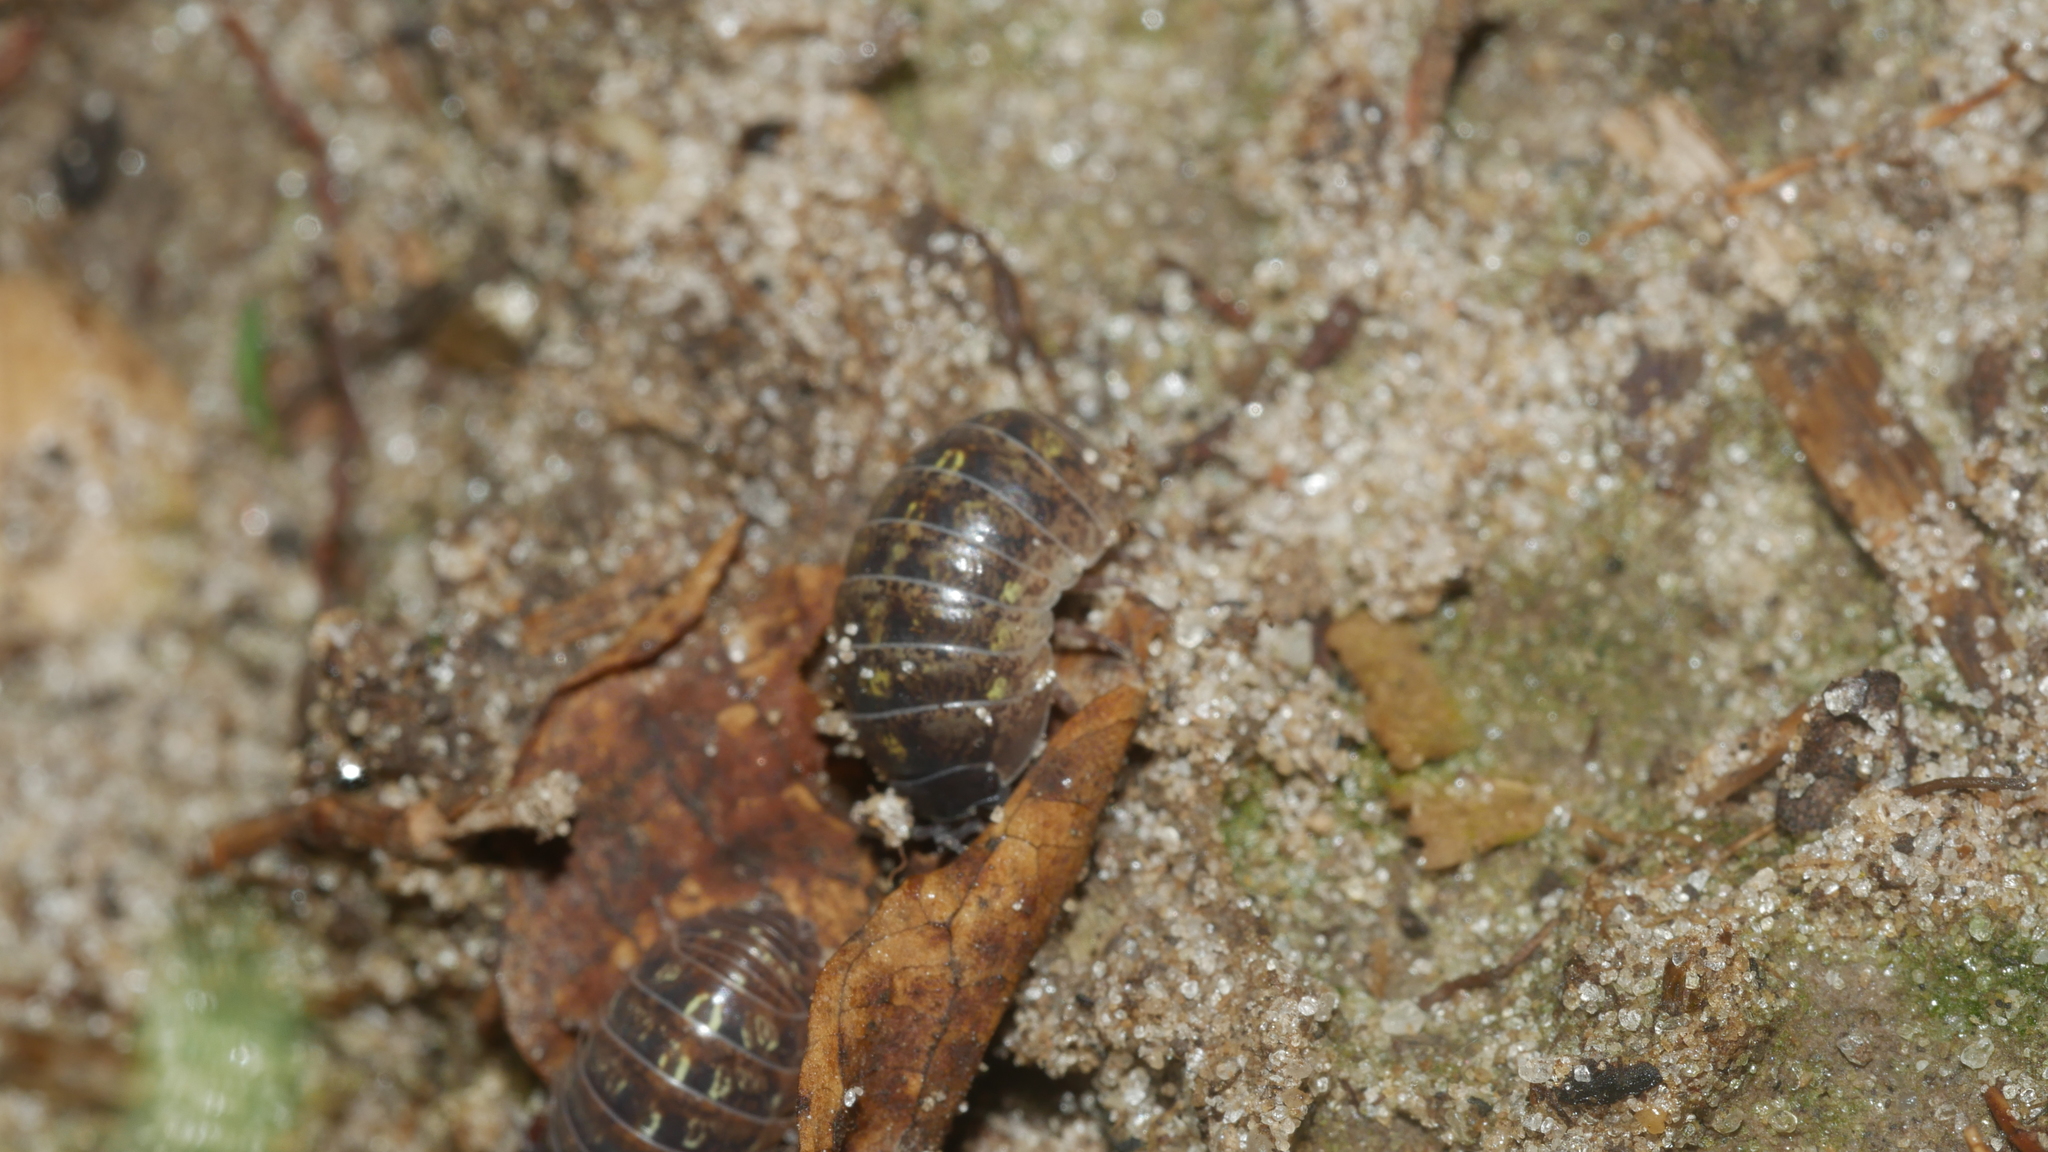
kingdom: Animalia
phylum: Arthropoda
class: Malacostraca
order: Isopoda
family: Armadillidiidae
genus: Armadillidium
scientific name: Armadillidium vulgare
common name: Common pill woodlouse
